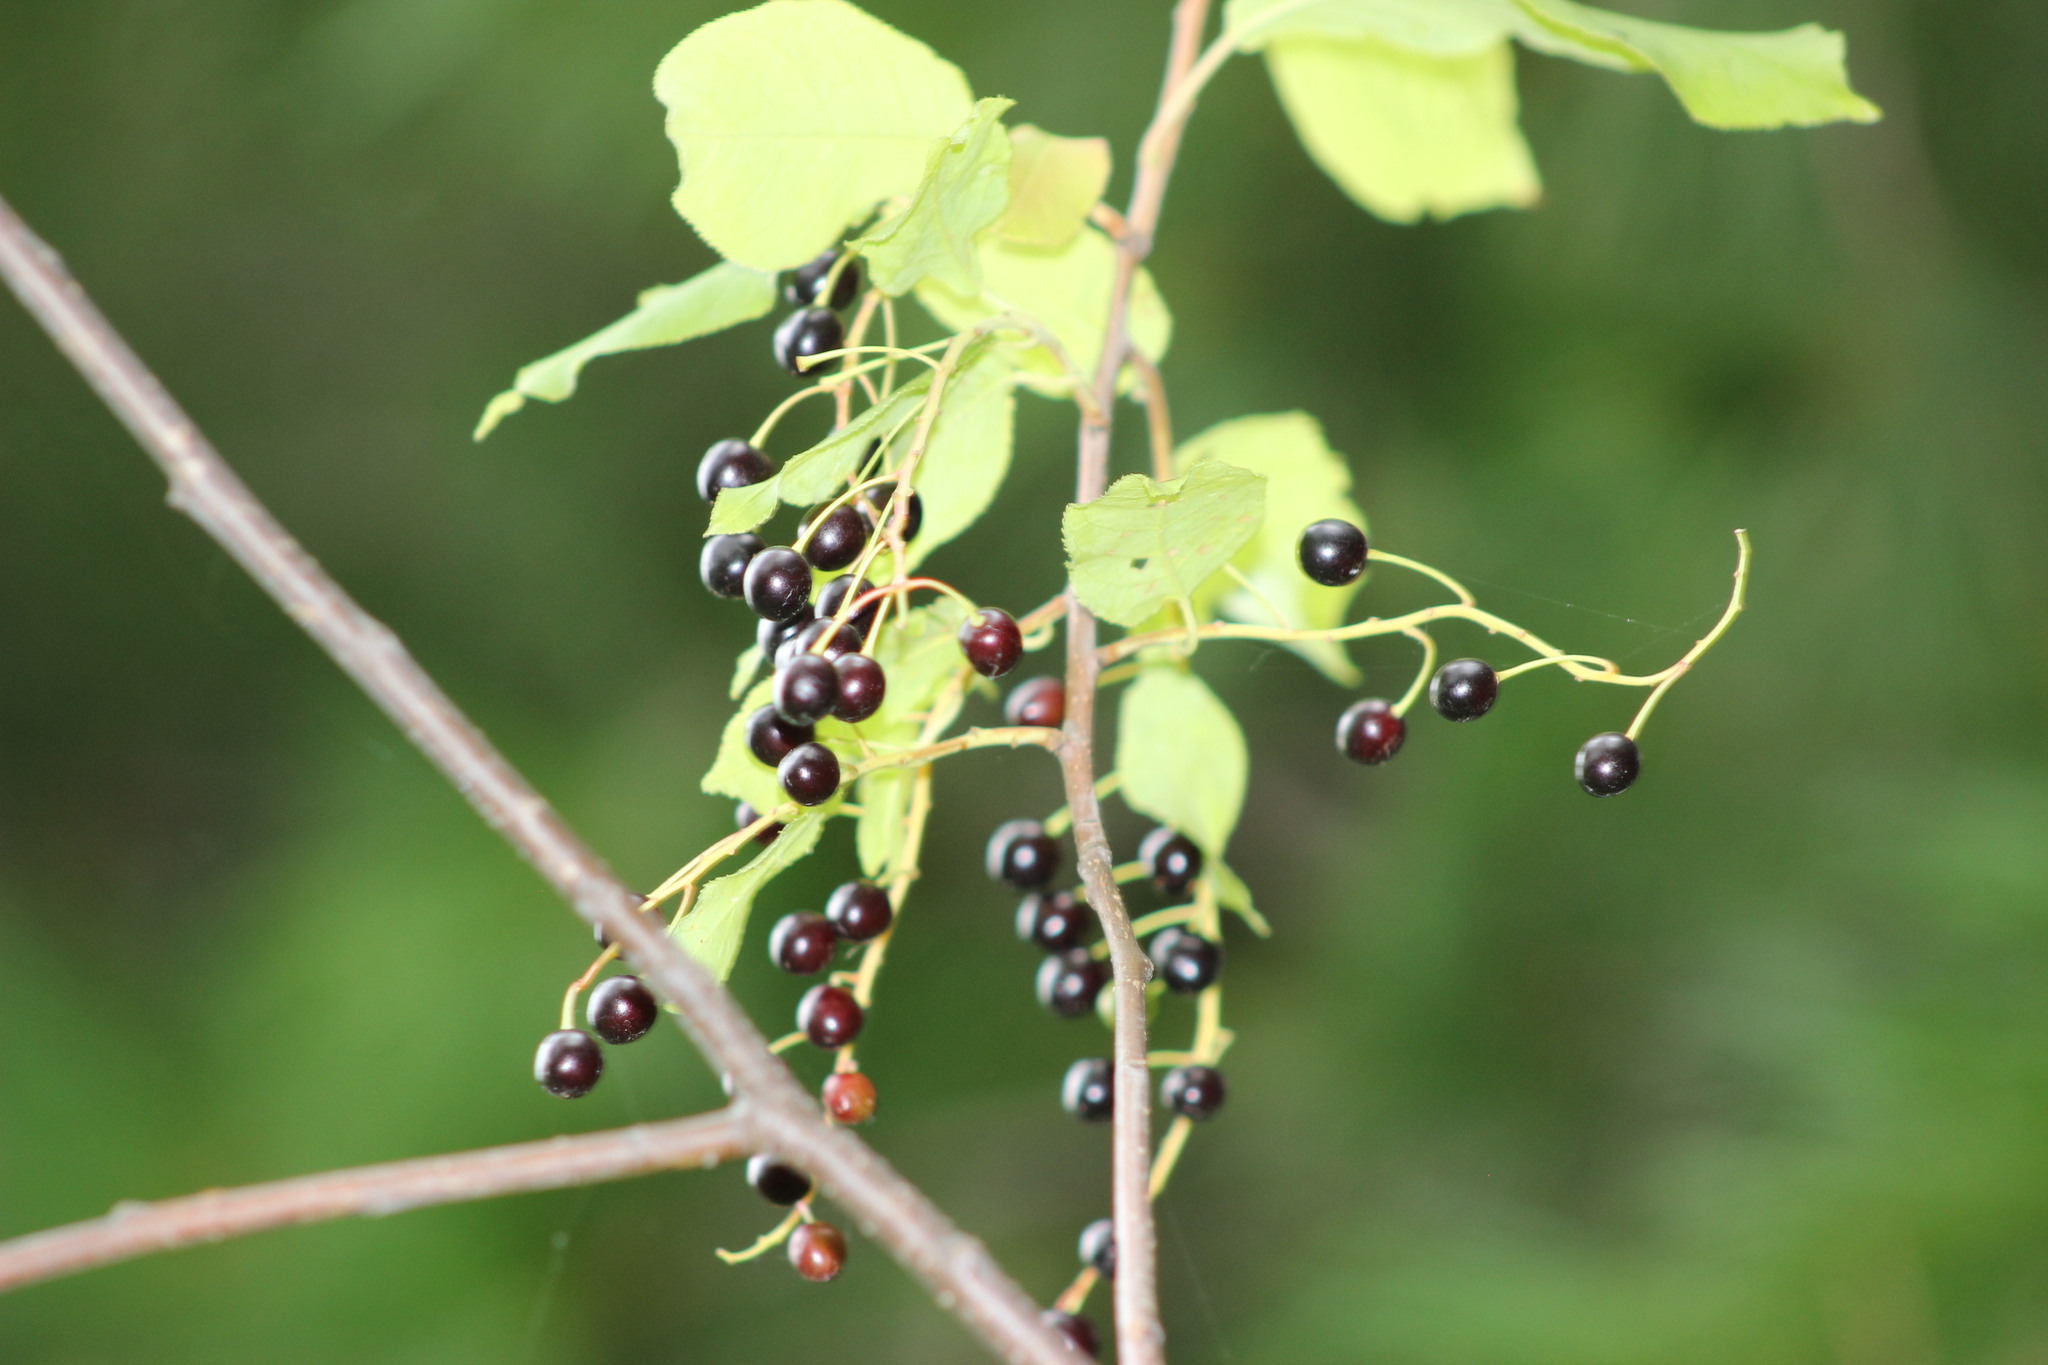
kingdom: Plantae
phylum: Tracheophyta
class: Magnoliopsida
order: Rosales
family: Rosaceae
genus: Prunus
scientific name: Prunus padus
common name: Bird cherry
